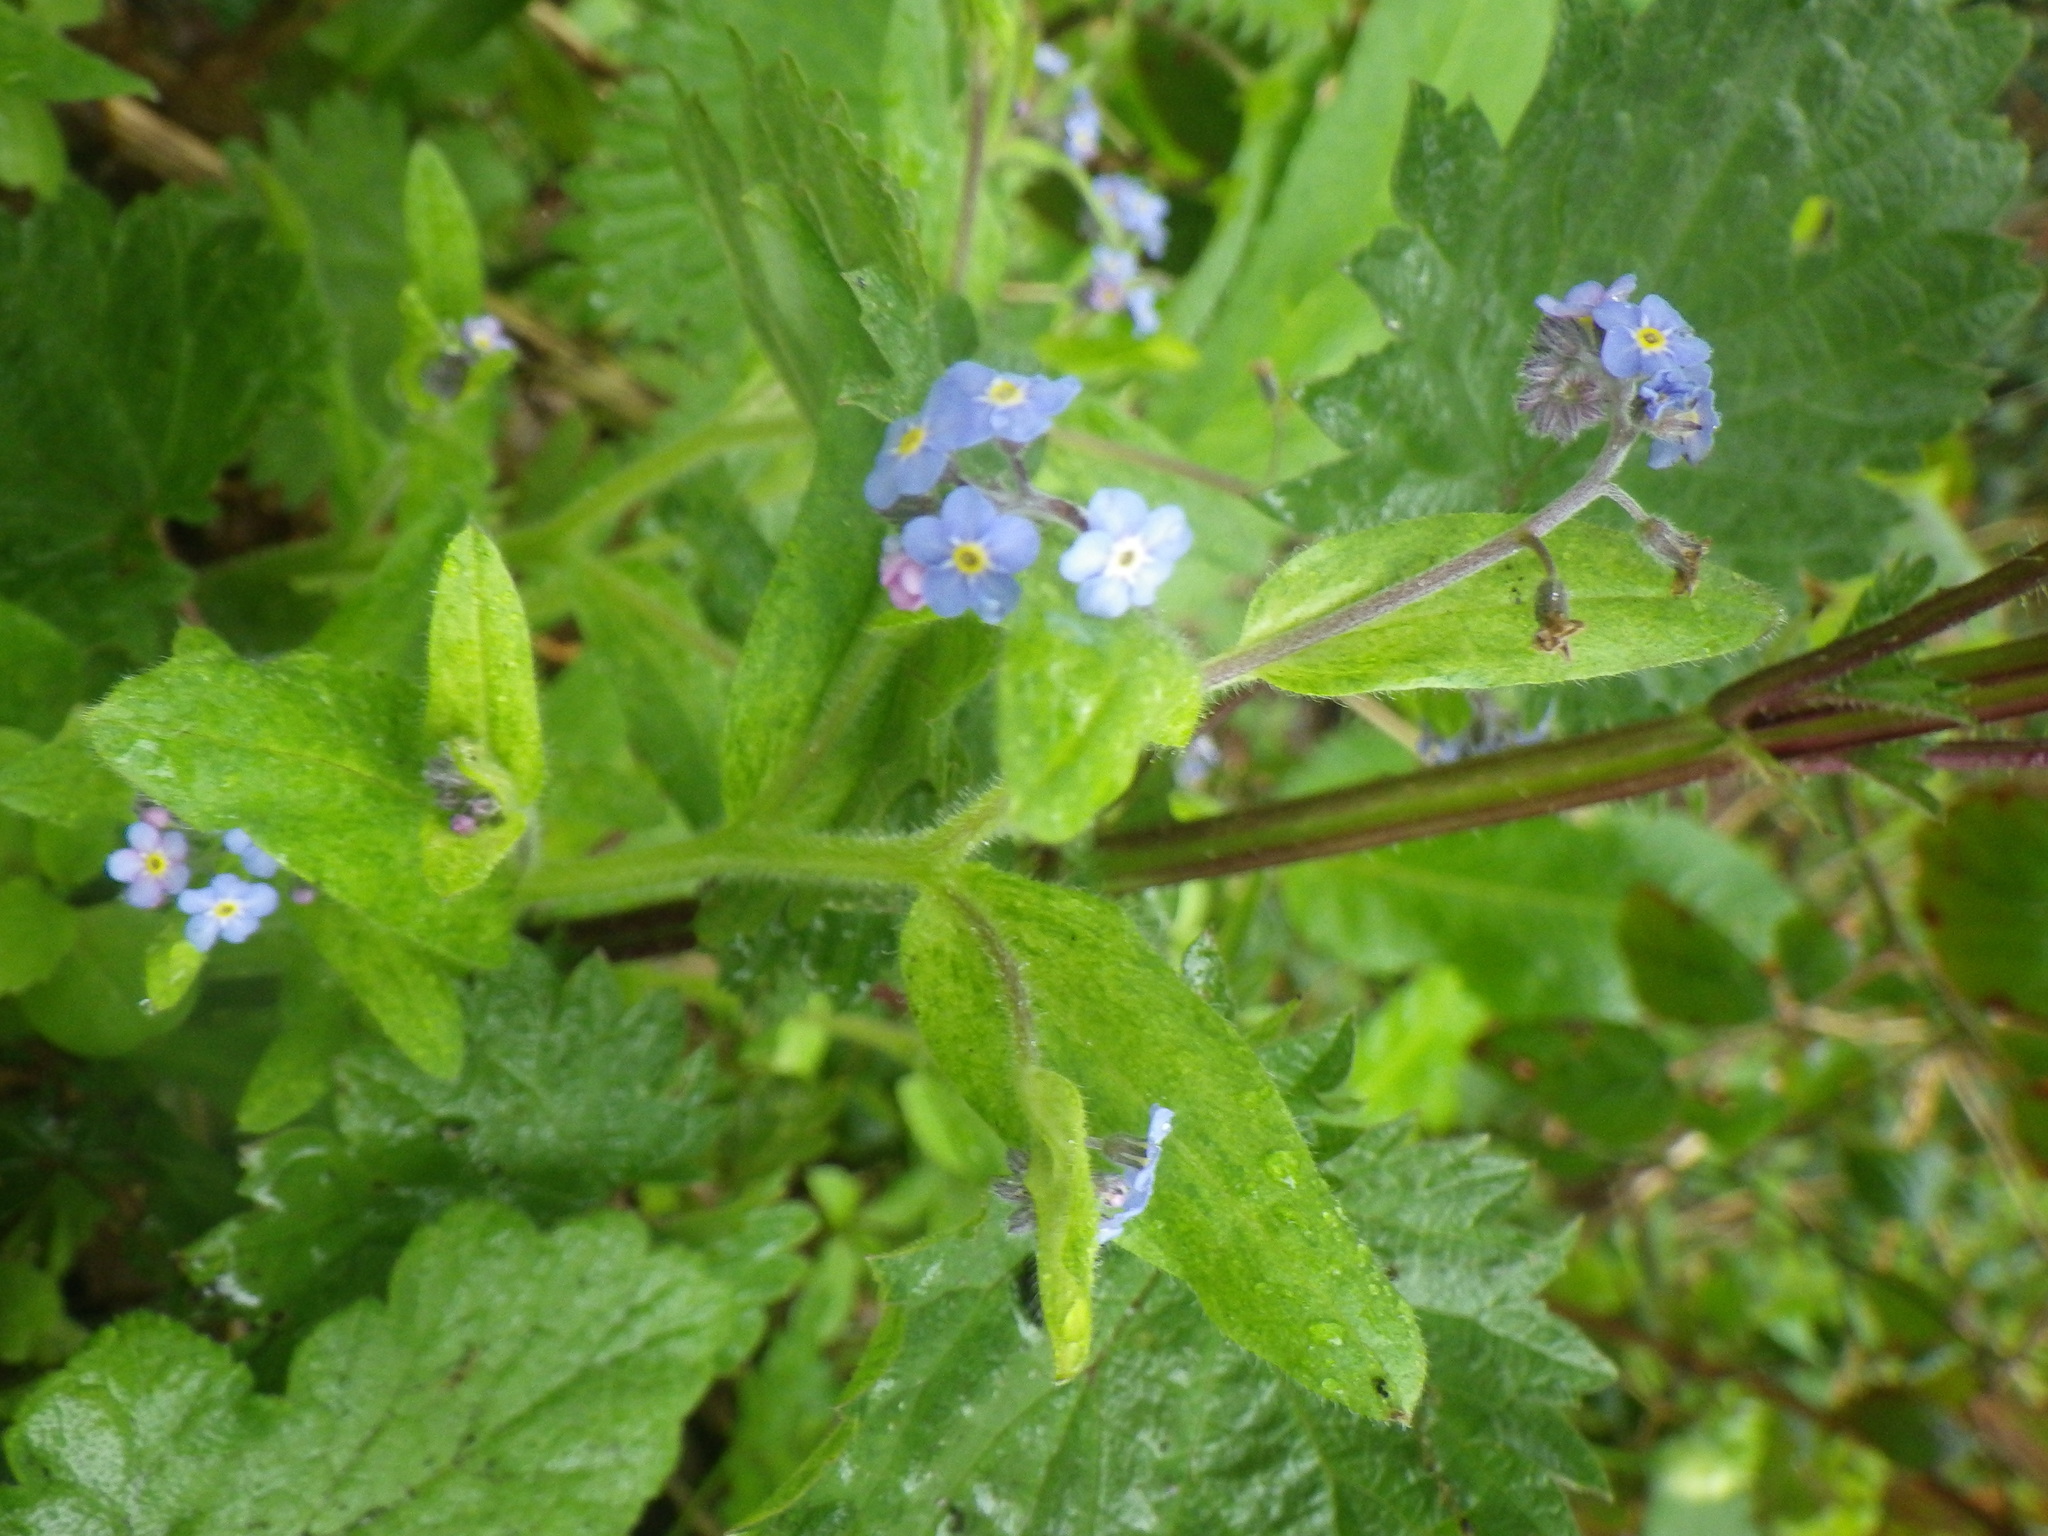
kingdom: Plantae
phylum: Tracheophyta
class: Magnoliopsida
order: Boraginales
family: Boraginaceae
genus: Myosotis
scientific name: Myosotis sylvatica
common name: Wood forget-me-not
